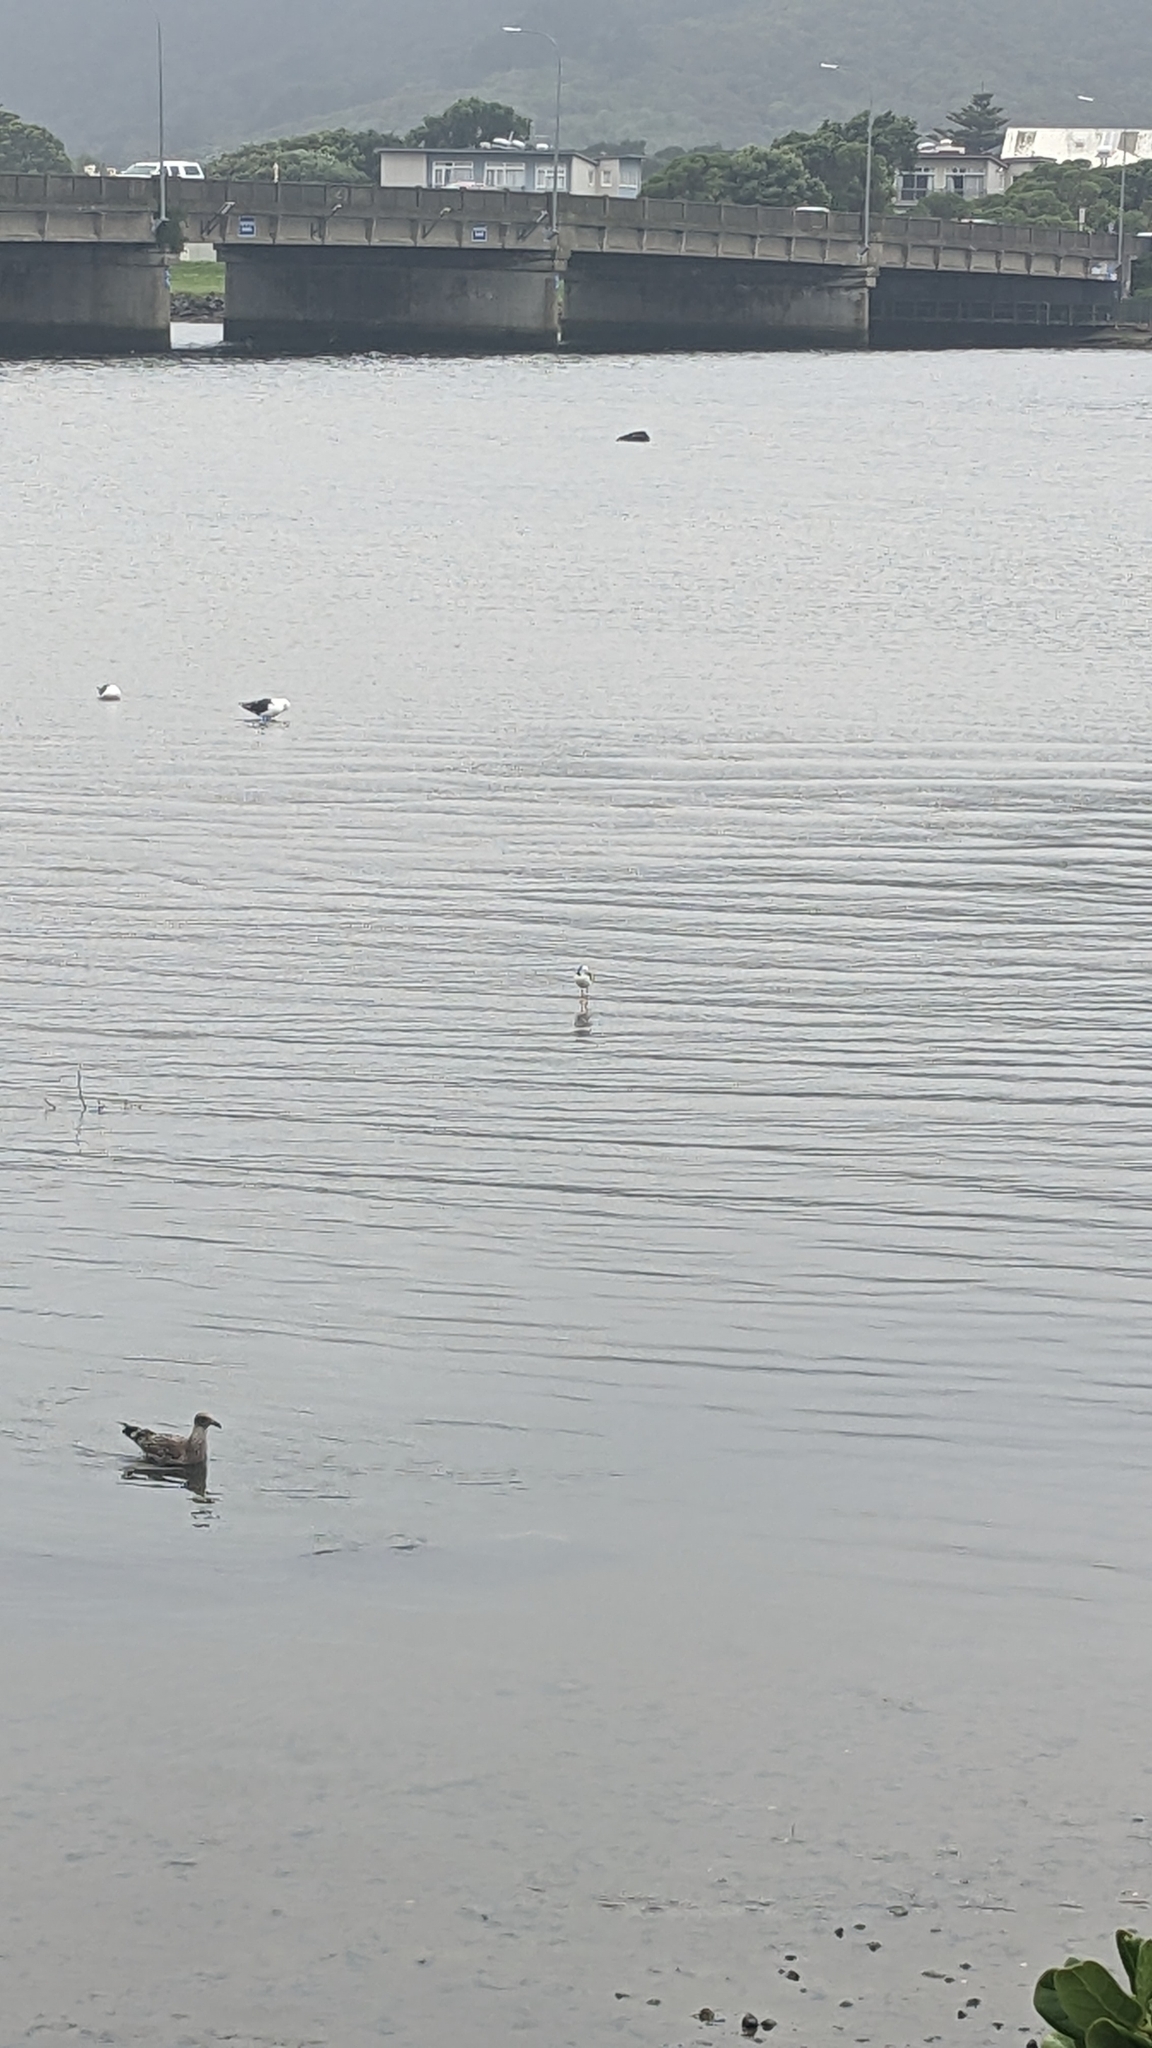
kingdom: Animalia
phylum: Chordata
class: Aves
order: Charadriiformes
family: Recurvirostridae
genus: Himantopus
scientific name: Himantopus leucocephalus
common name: White-headed stilt
